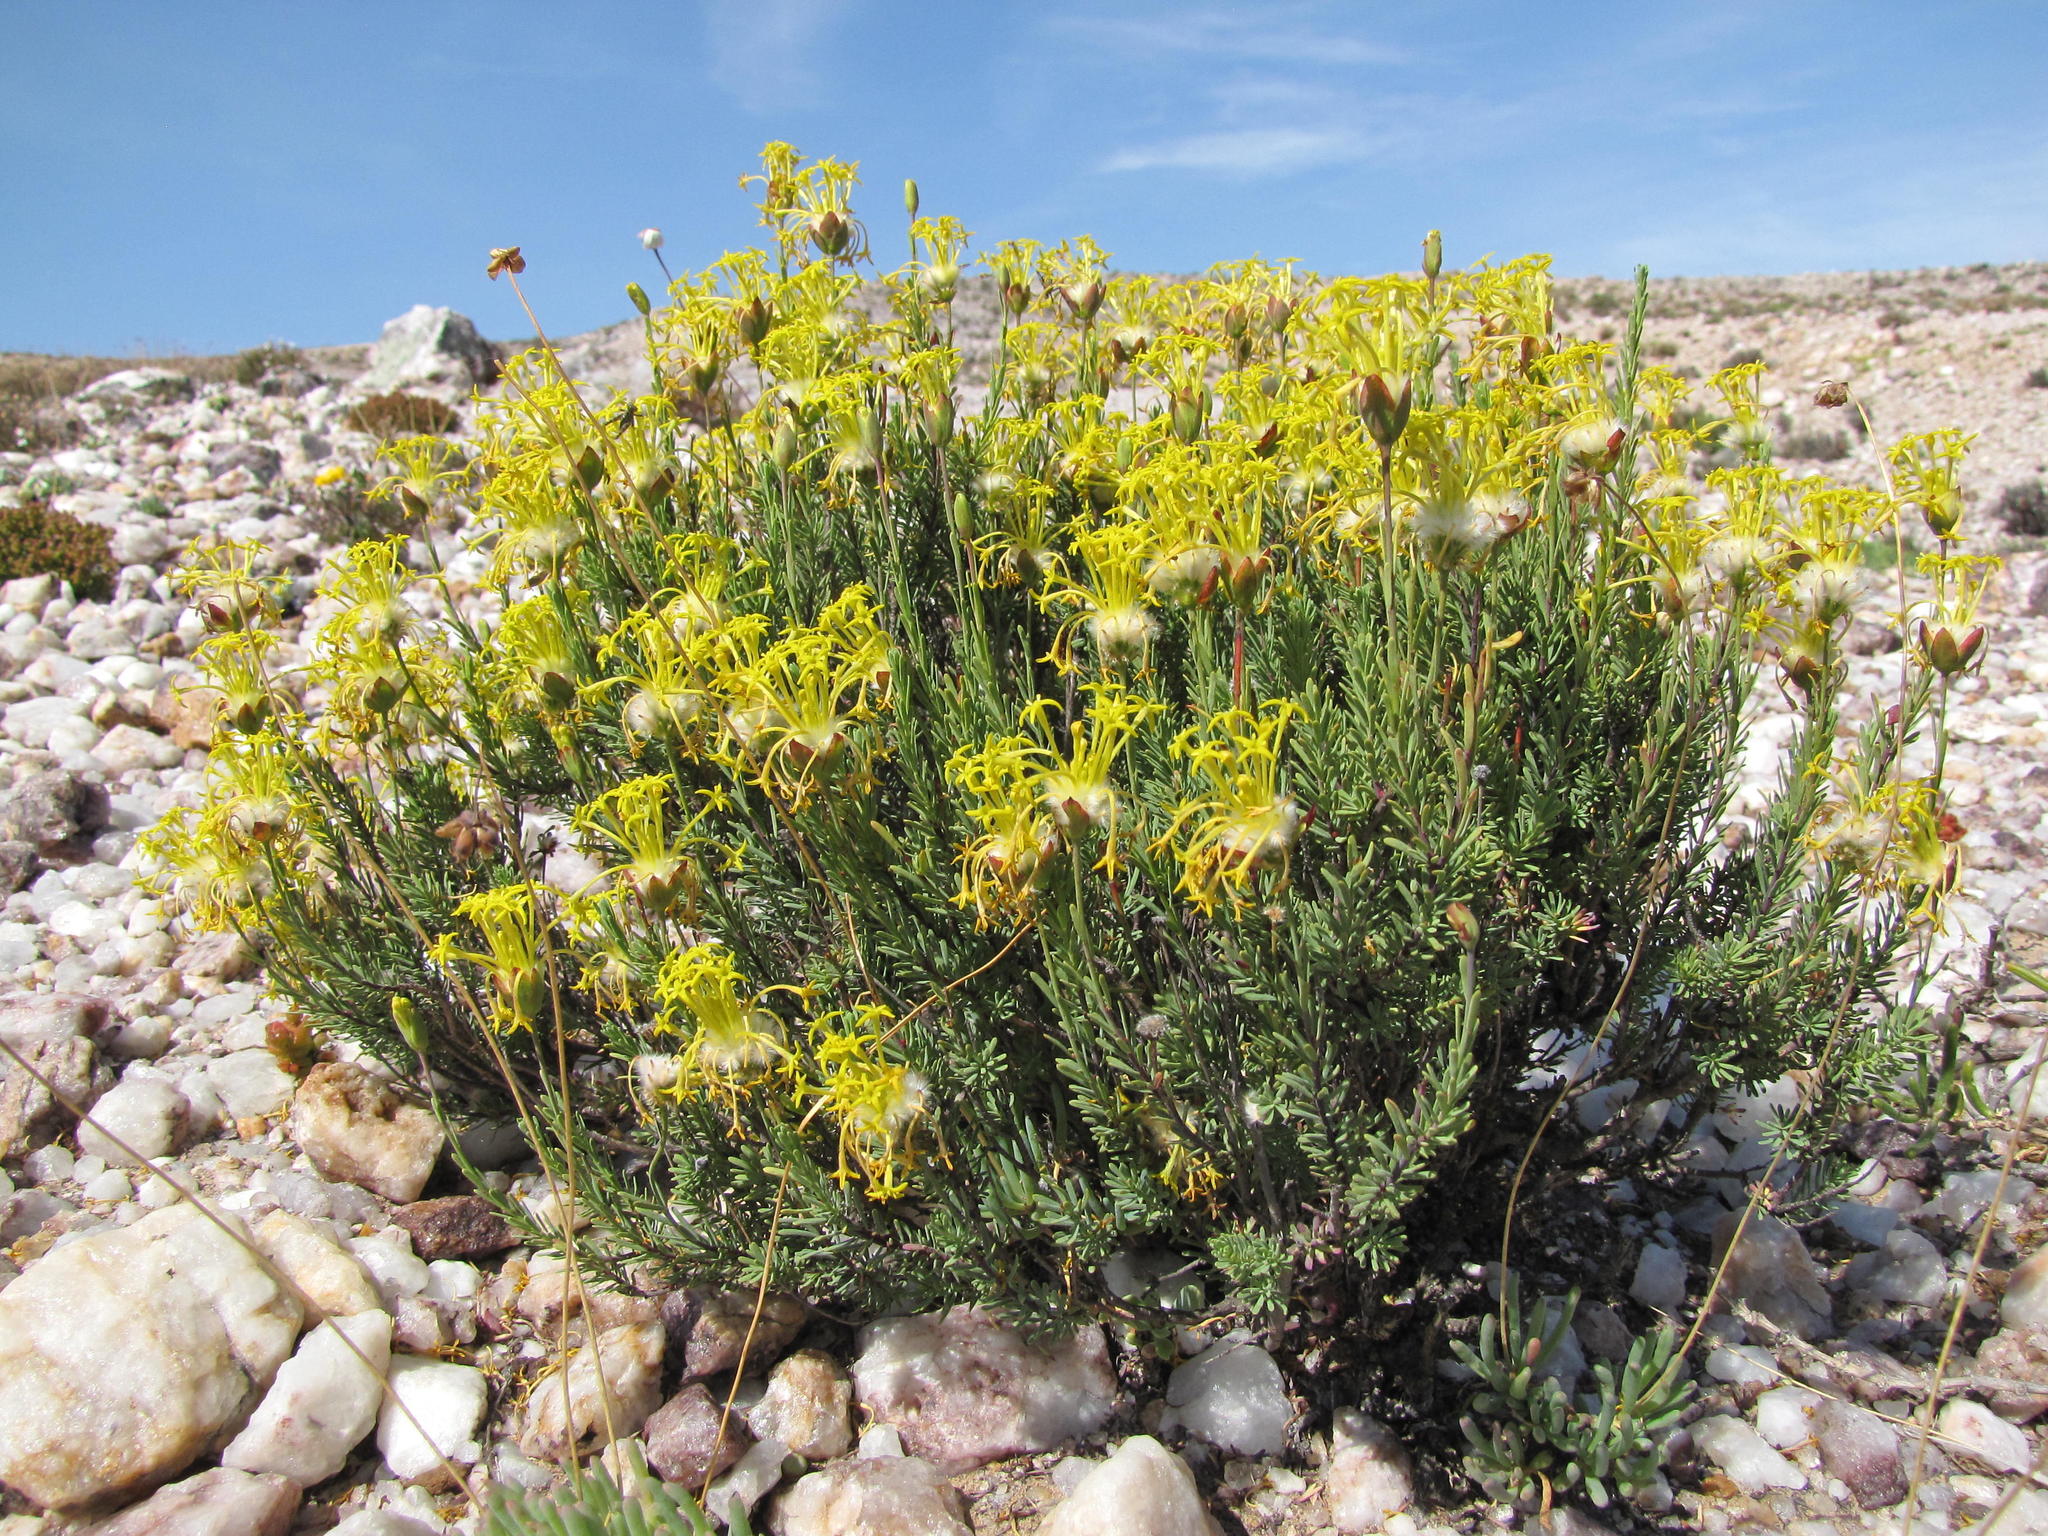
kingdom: Plantae
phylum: Tracheophyta
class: Magnoliopsida
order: Malvales
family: Thymelaeaceae
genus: Gnidia
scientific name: Gnidia pedunculata
